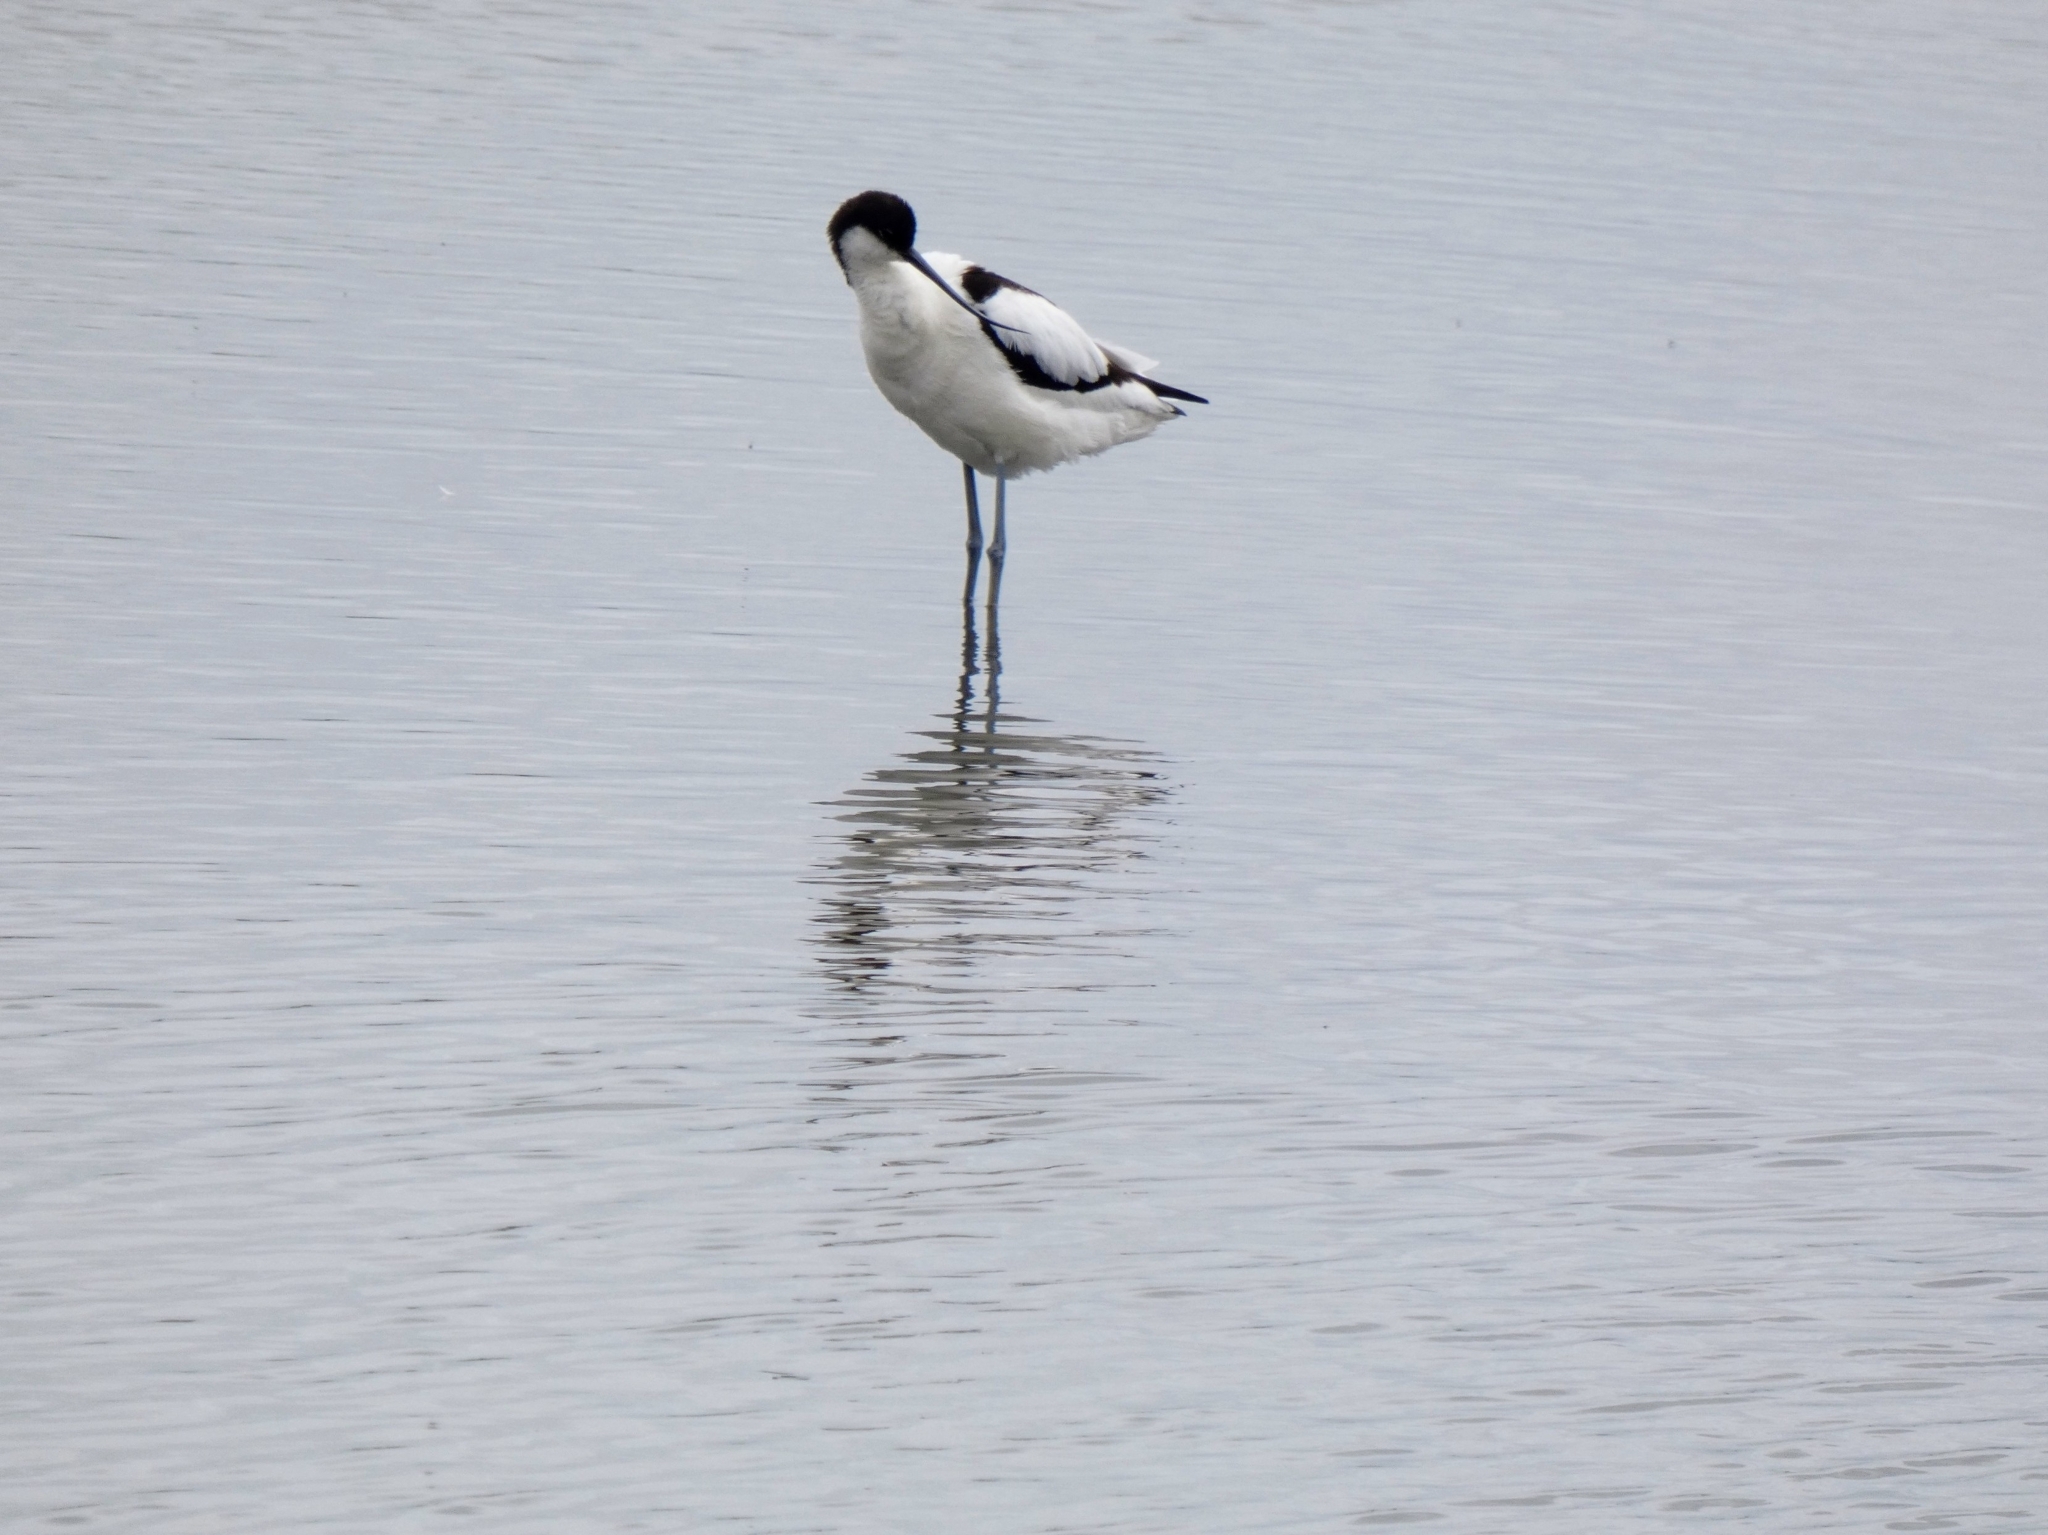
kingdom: Animalia
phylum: Chordata
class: Aves
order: Charadriiformes
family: Recurvirostridae
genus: Recurvirostra
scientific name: Recurvirostra avosetta
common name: Pied avocet
